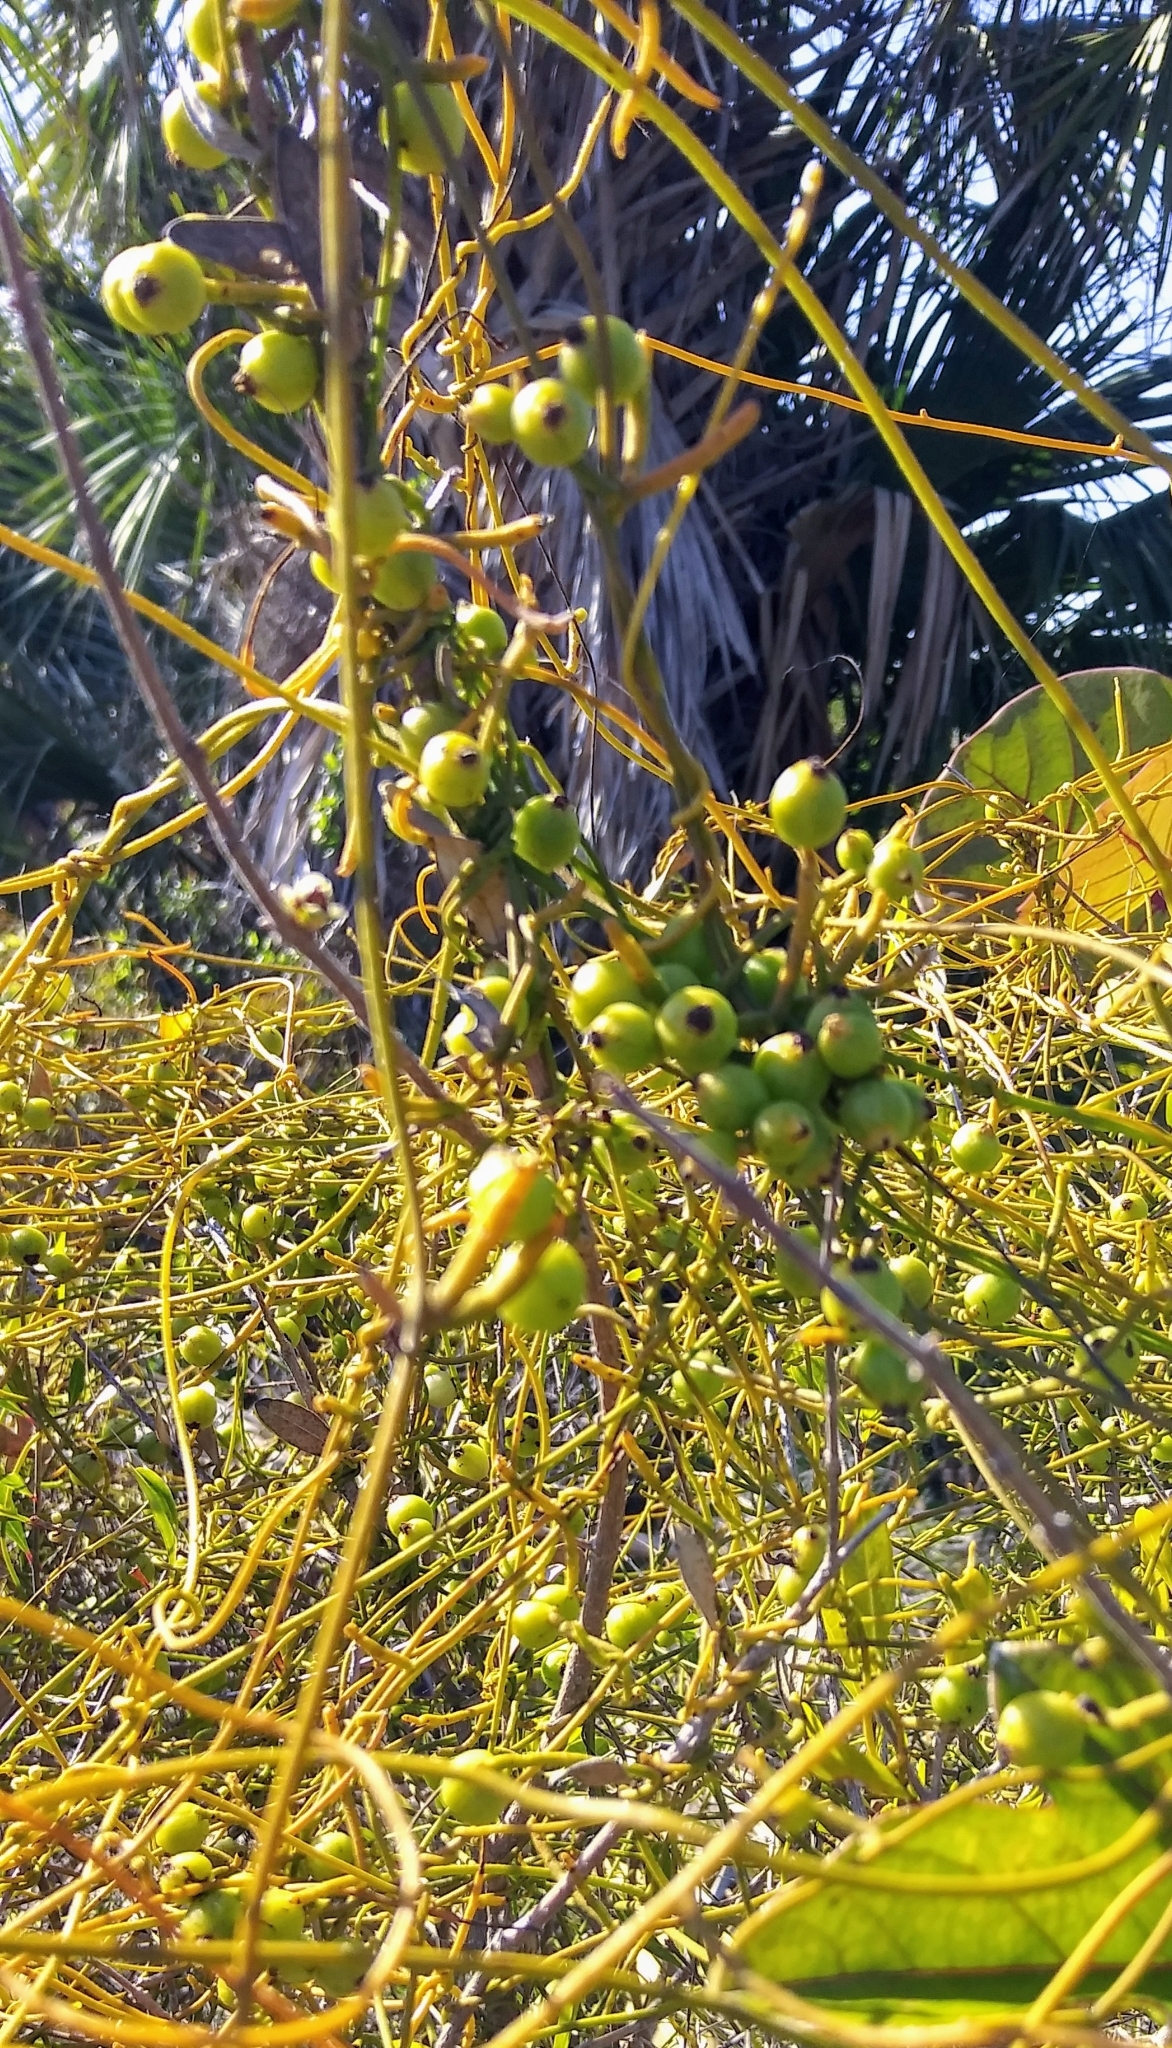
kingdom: Plantae
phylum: Tracheophyta
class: Magnoliopsida
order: Laurales
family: Lauraceae
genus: Cassytha
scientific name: Cassytha filiformis
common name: Dodder-laurel
